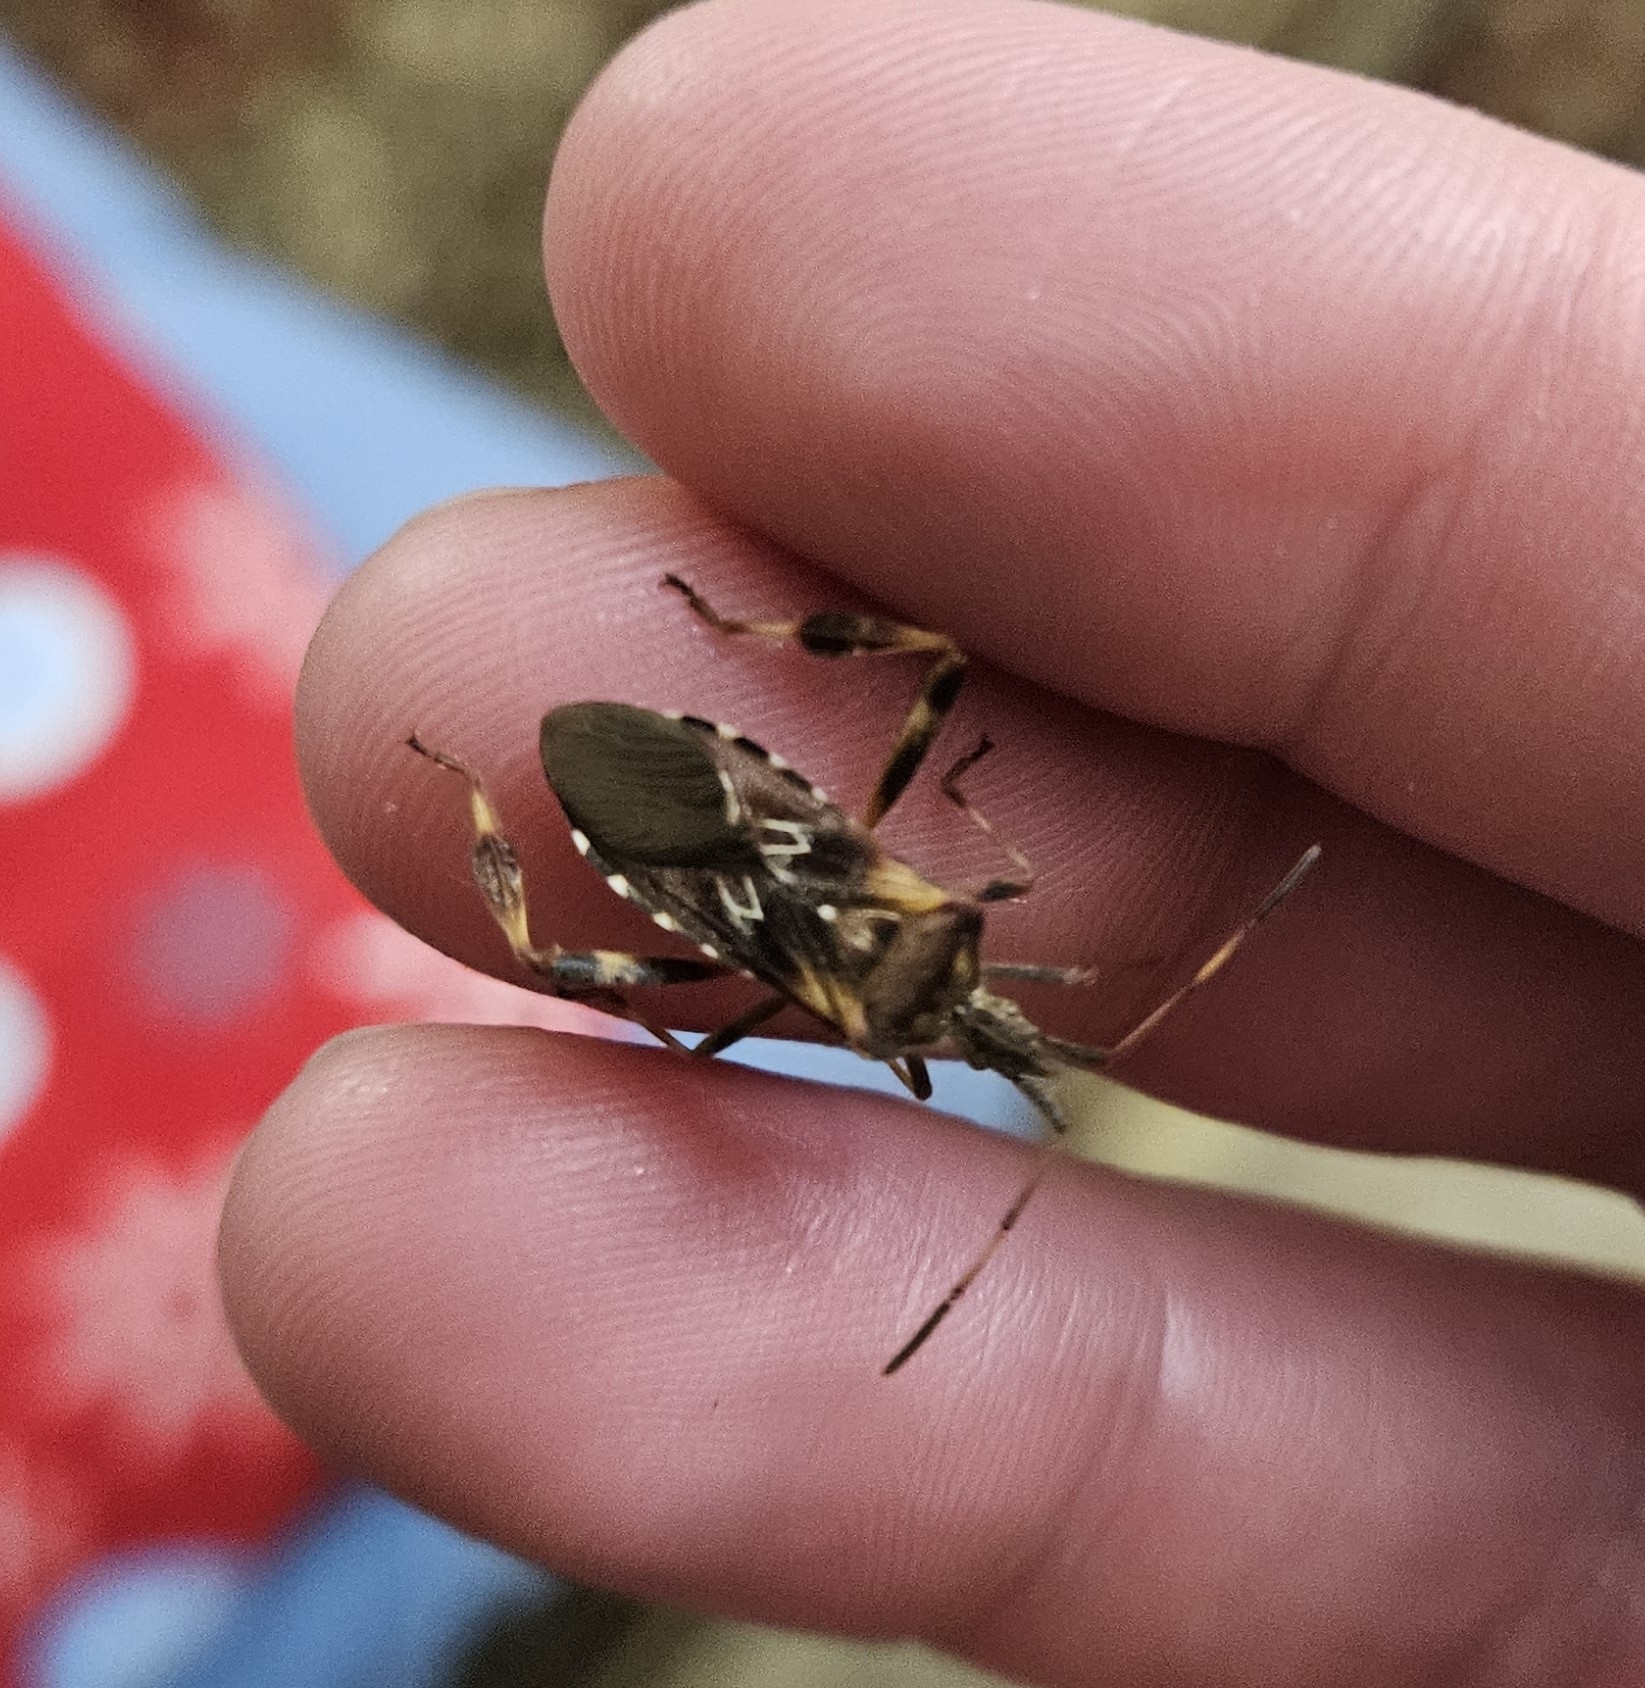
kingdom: Animalia
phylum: Arthropoda
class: Insecta
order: Hemiptera
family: Coreidae
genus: Leptoglossus
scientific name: Leptoglossus occidentalis
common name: Western conifer-seed bug
